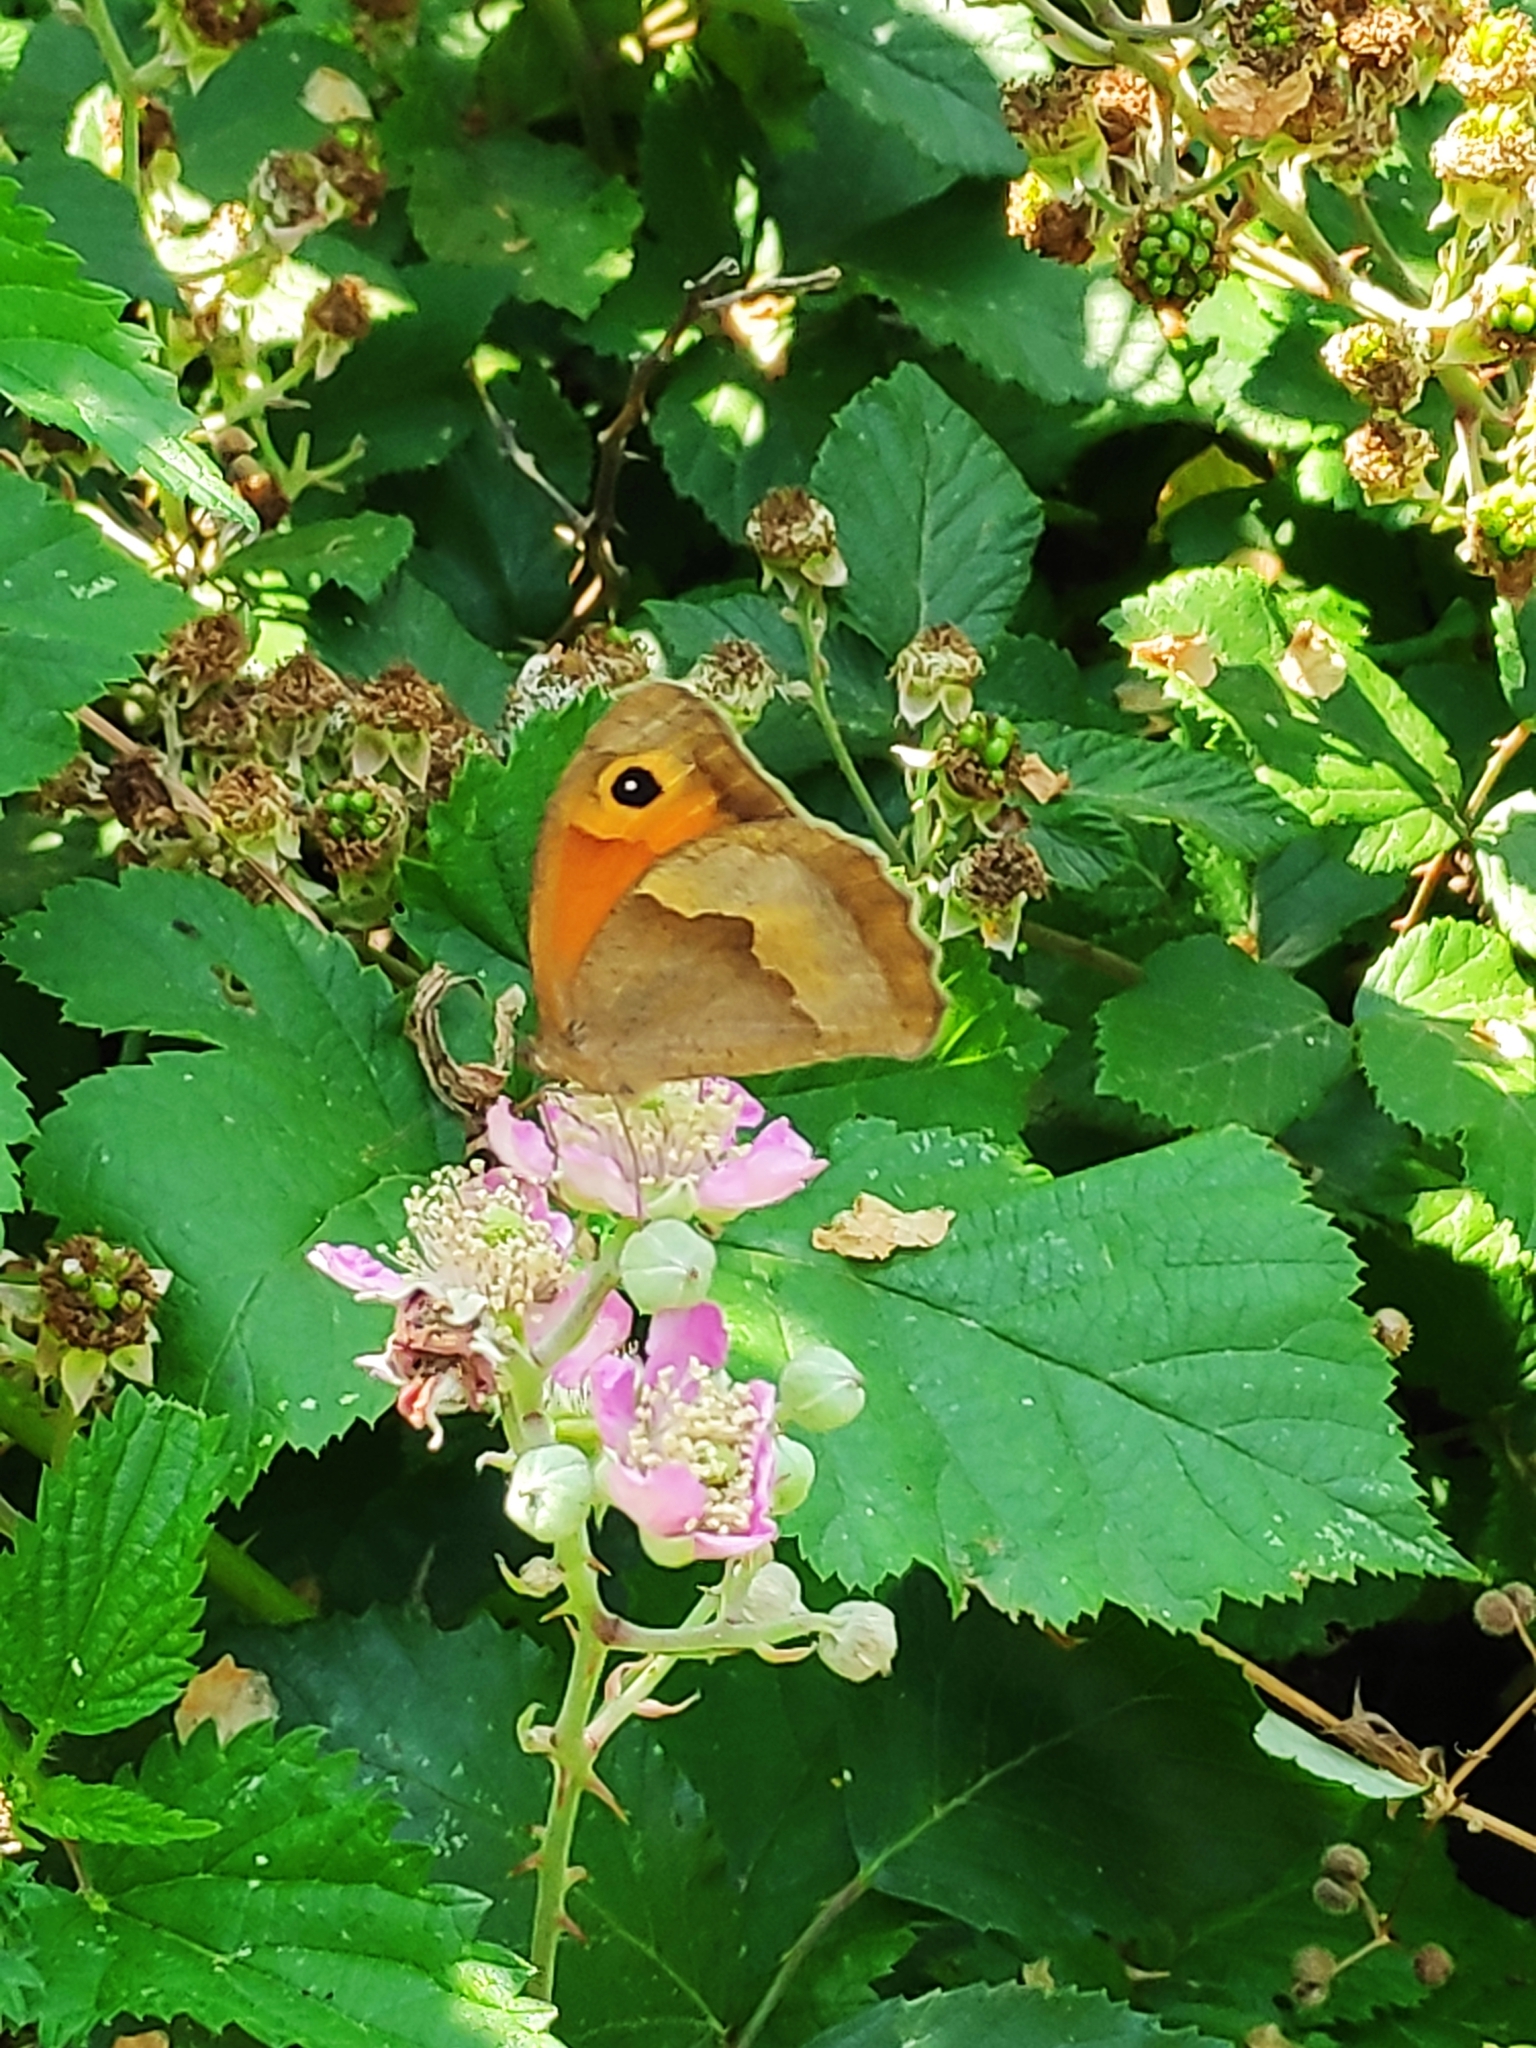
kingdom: Animalia
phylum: Arthropoda
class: Insecta
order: Lepidoptera
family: Nymphalidae
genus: Maniola
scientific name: Maniola jurtina
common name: Meadow brown
